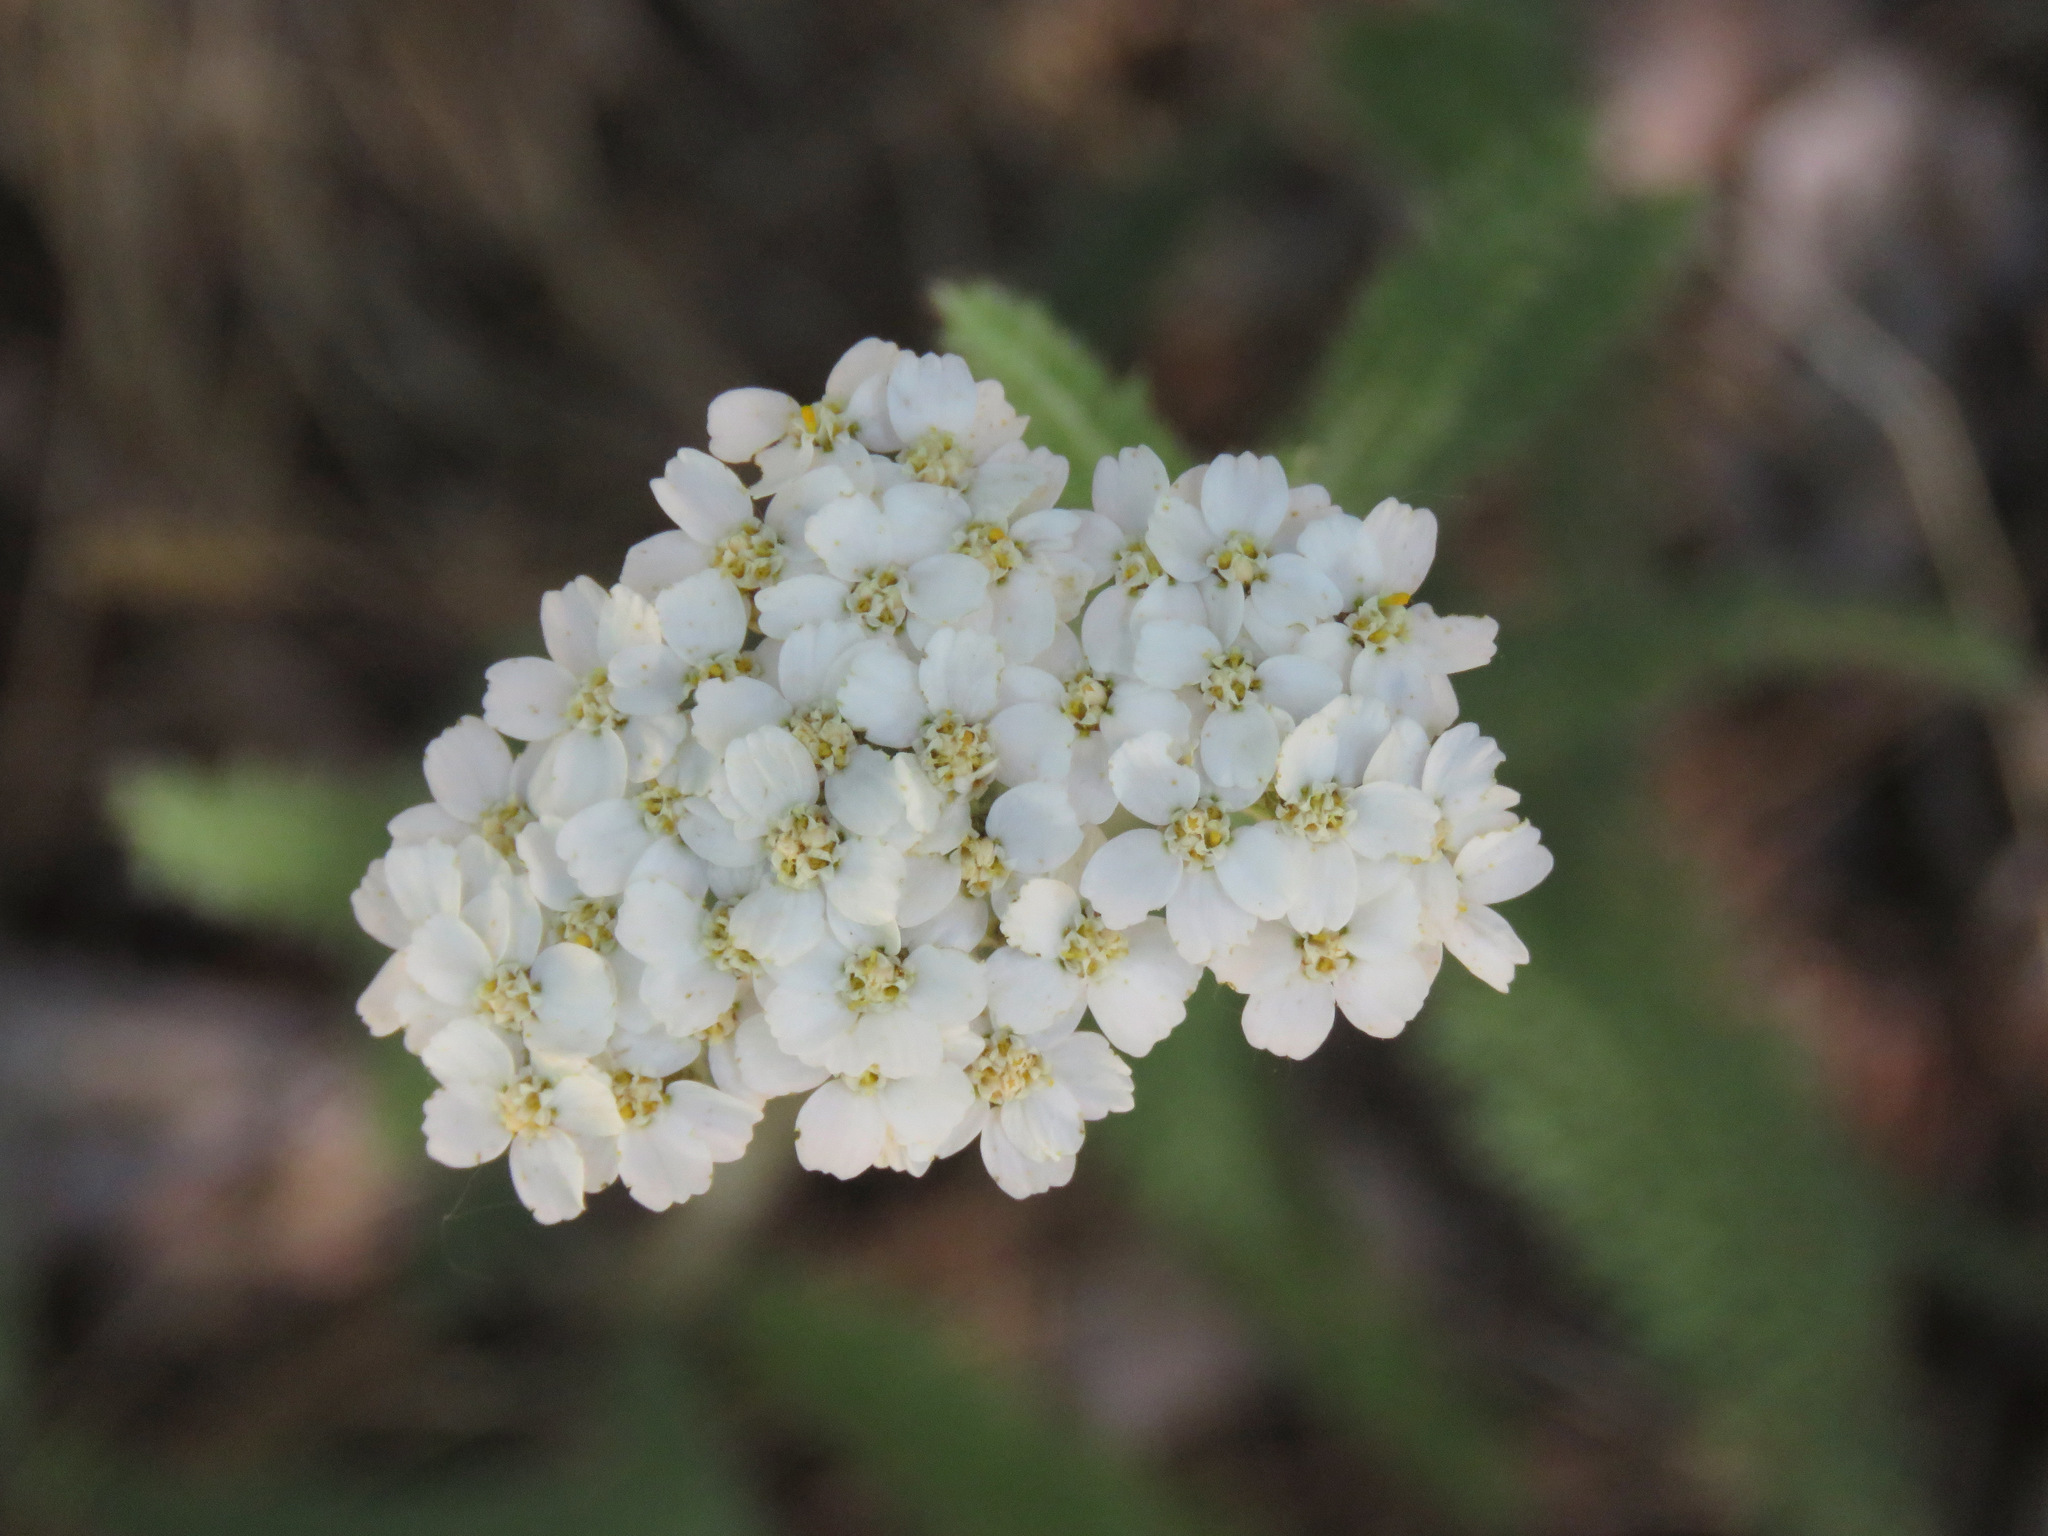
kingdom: Plantae
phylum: Tracheophyta
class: Magnoliopsida
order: Asterales
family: Asteraceae
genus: Achillea
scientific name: Achillea millefolium
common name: Yarrow
